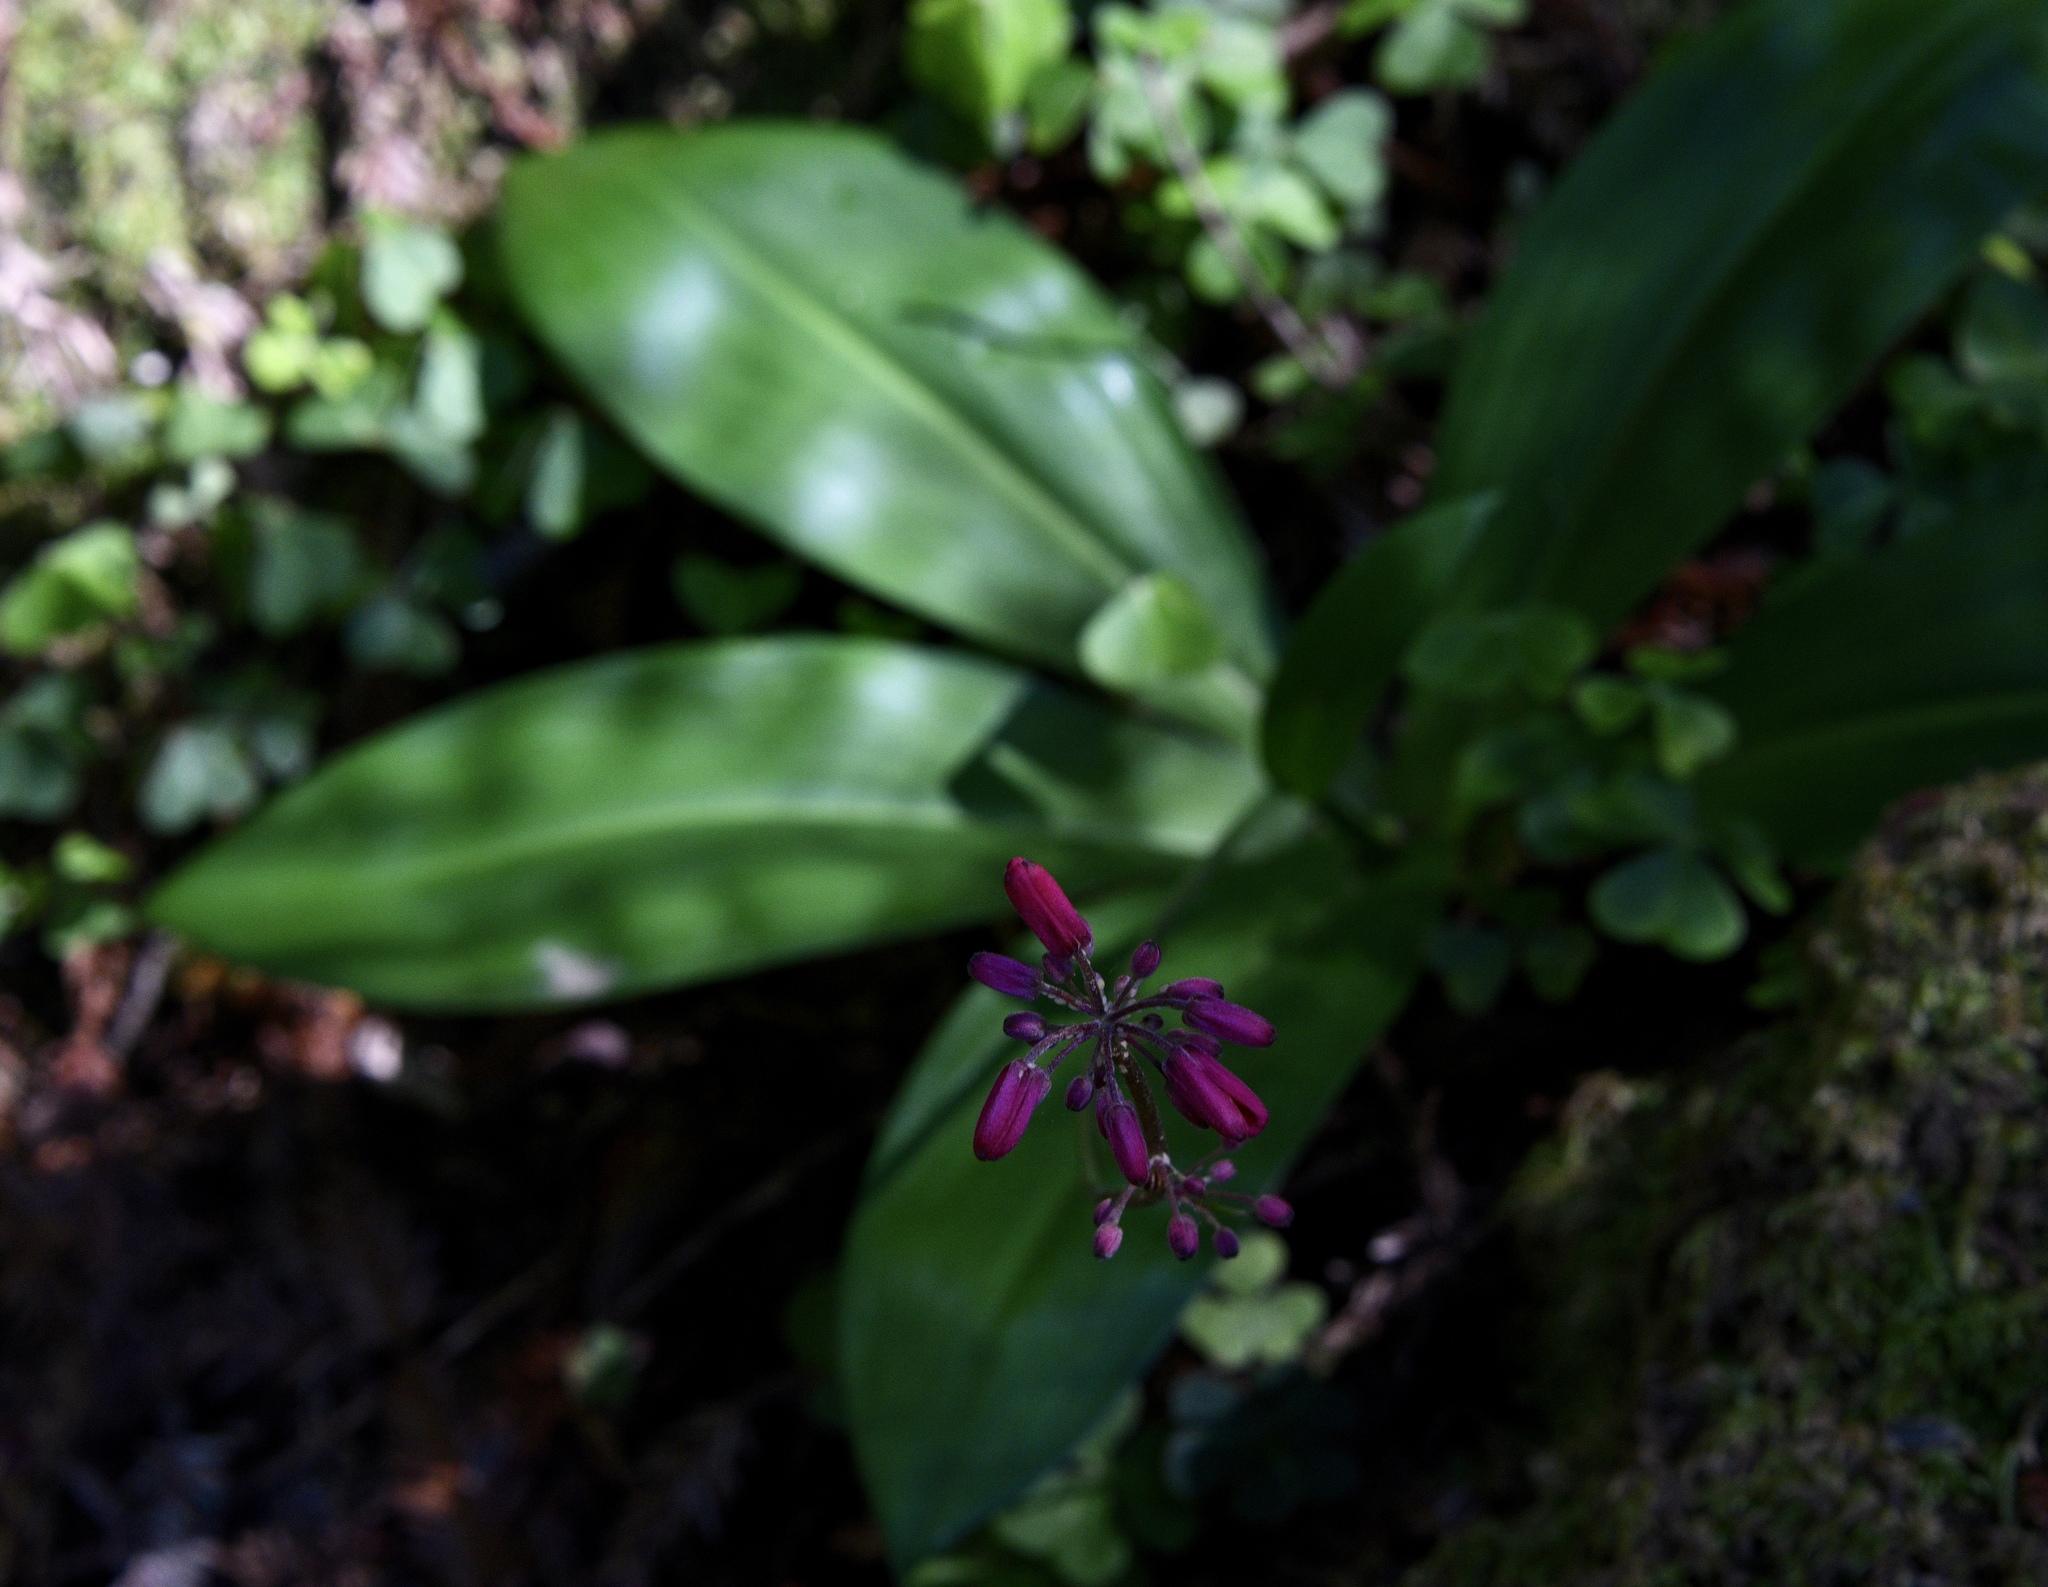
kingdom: Plantae
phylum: Tracheophyta
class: Liliopsida
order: Liliales
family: Liliaceae
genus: Clintonia
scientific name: Clintonia andrewsiana
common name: Red clintonia
